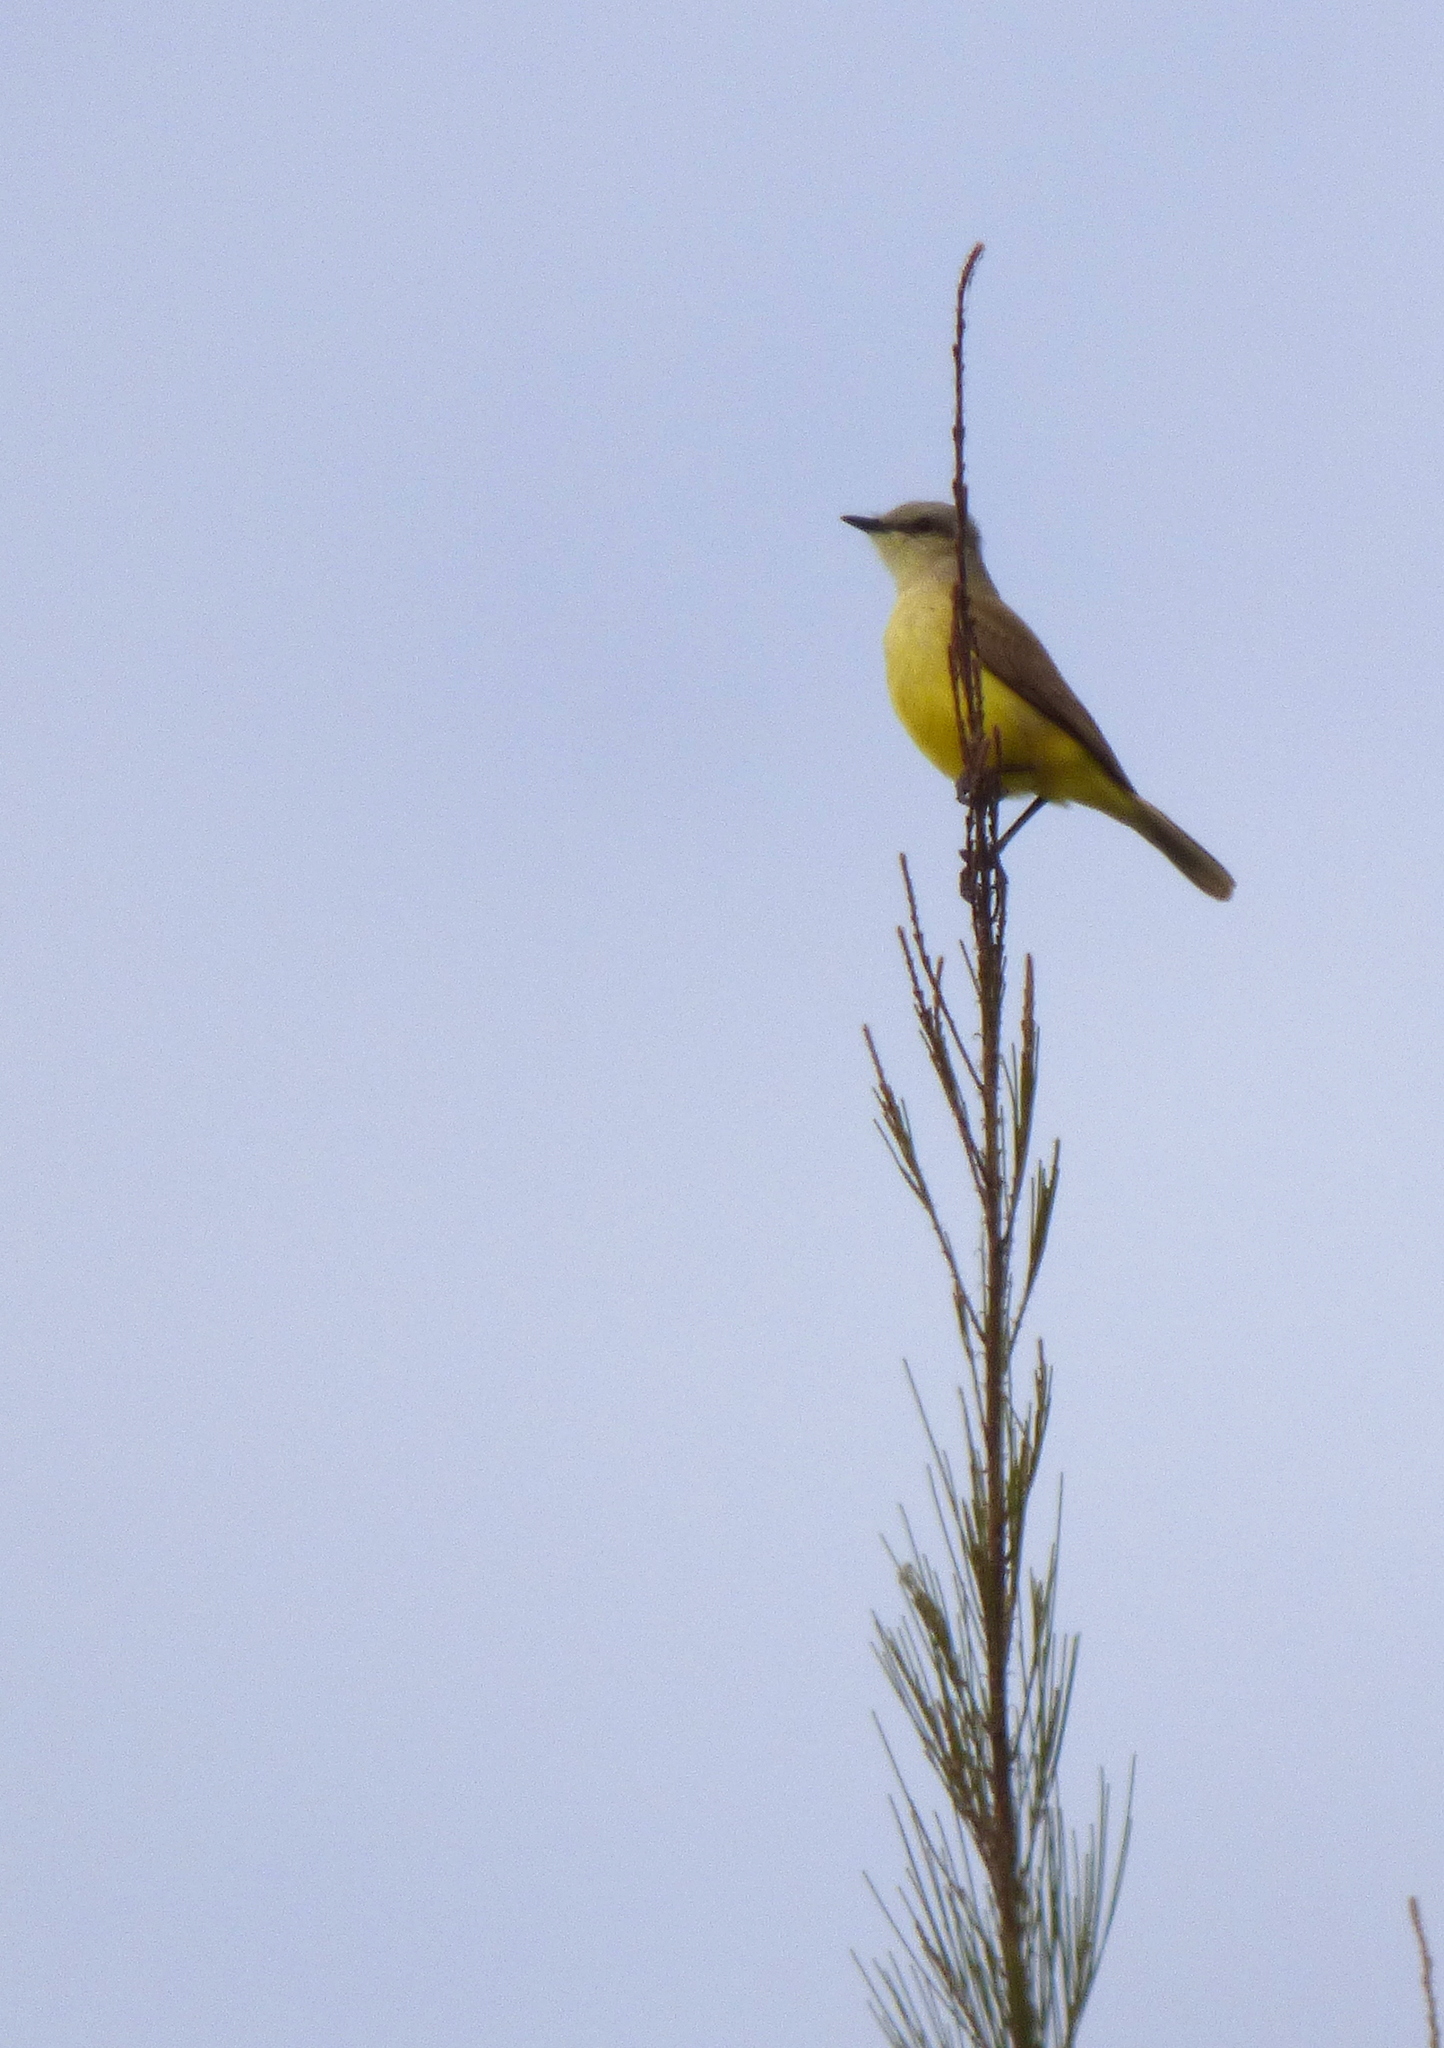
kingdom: Animalia
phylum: Chordata
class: Aves
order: Passeriformes
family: Tyrannidae
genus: Machetornis
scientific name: Machetornis rixosa
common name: Cattle tyrant
